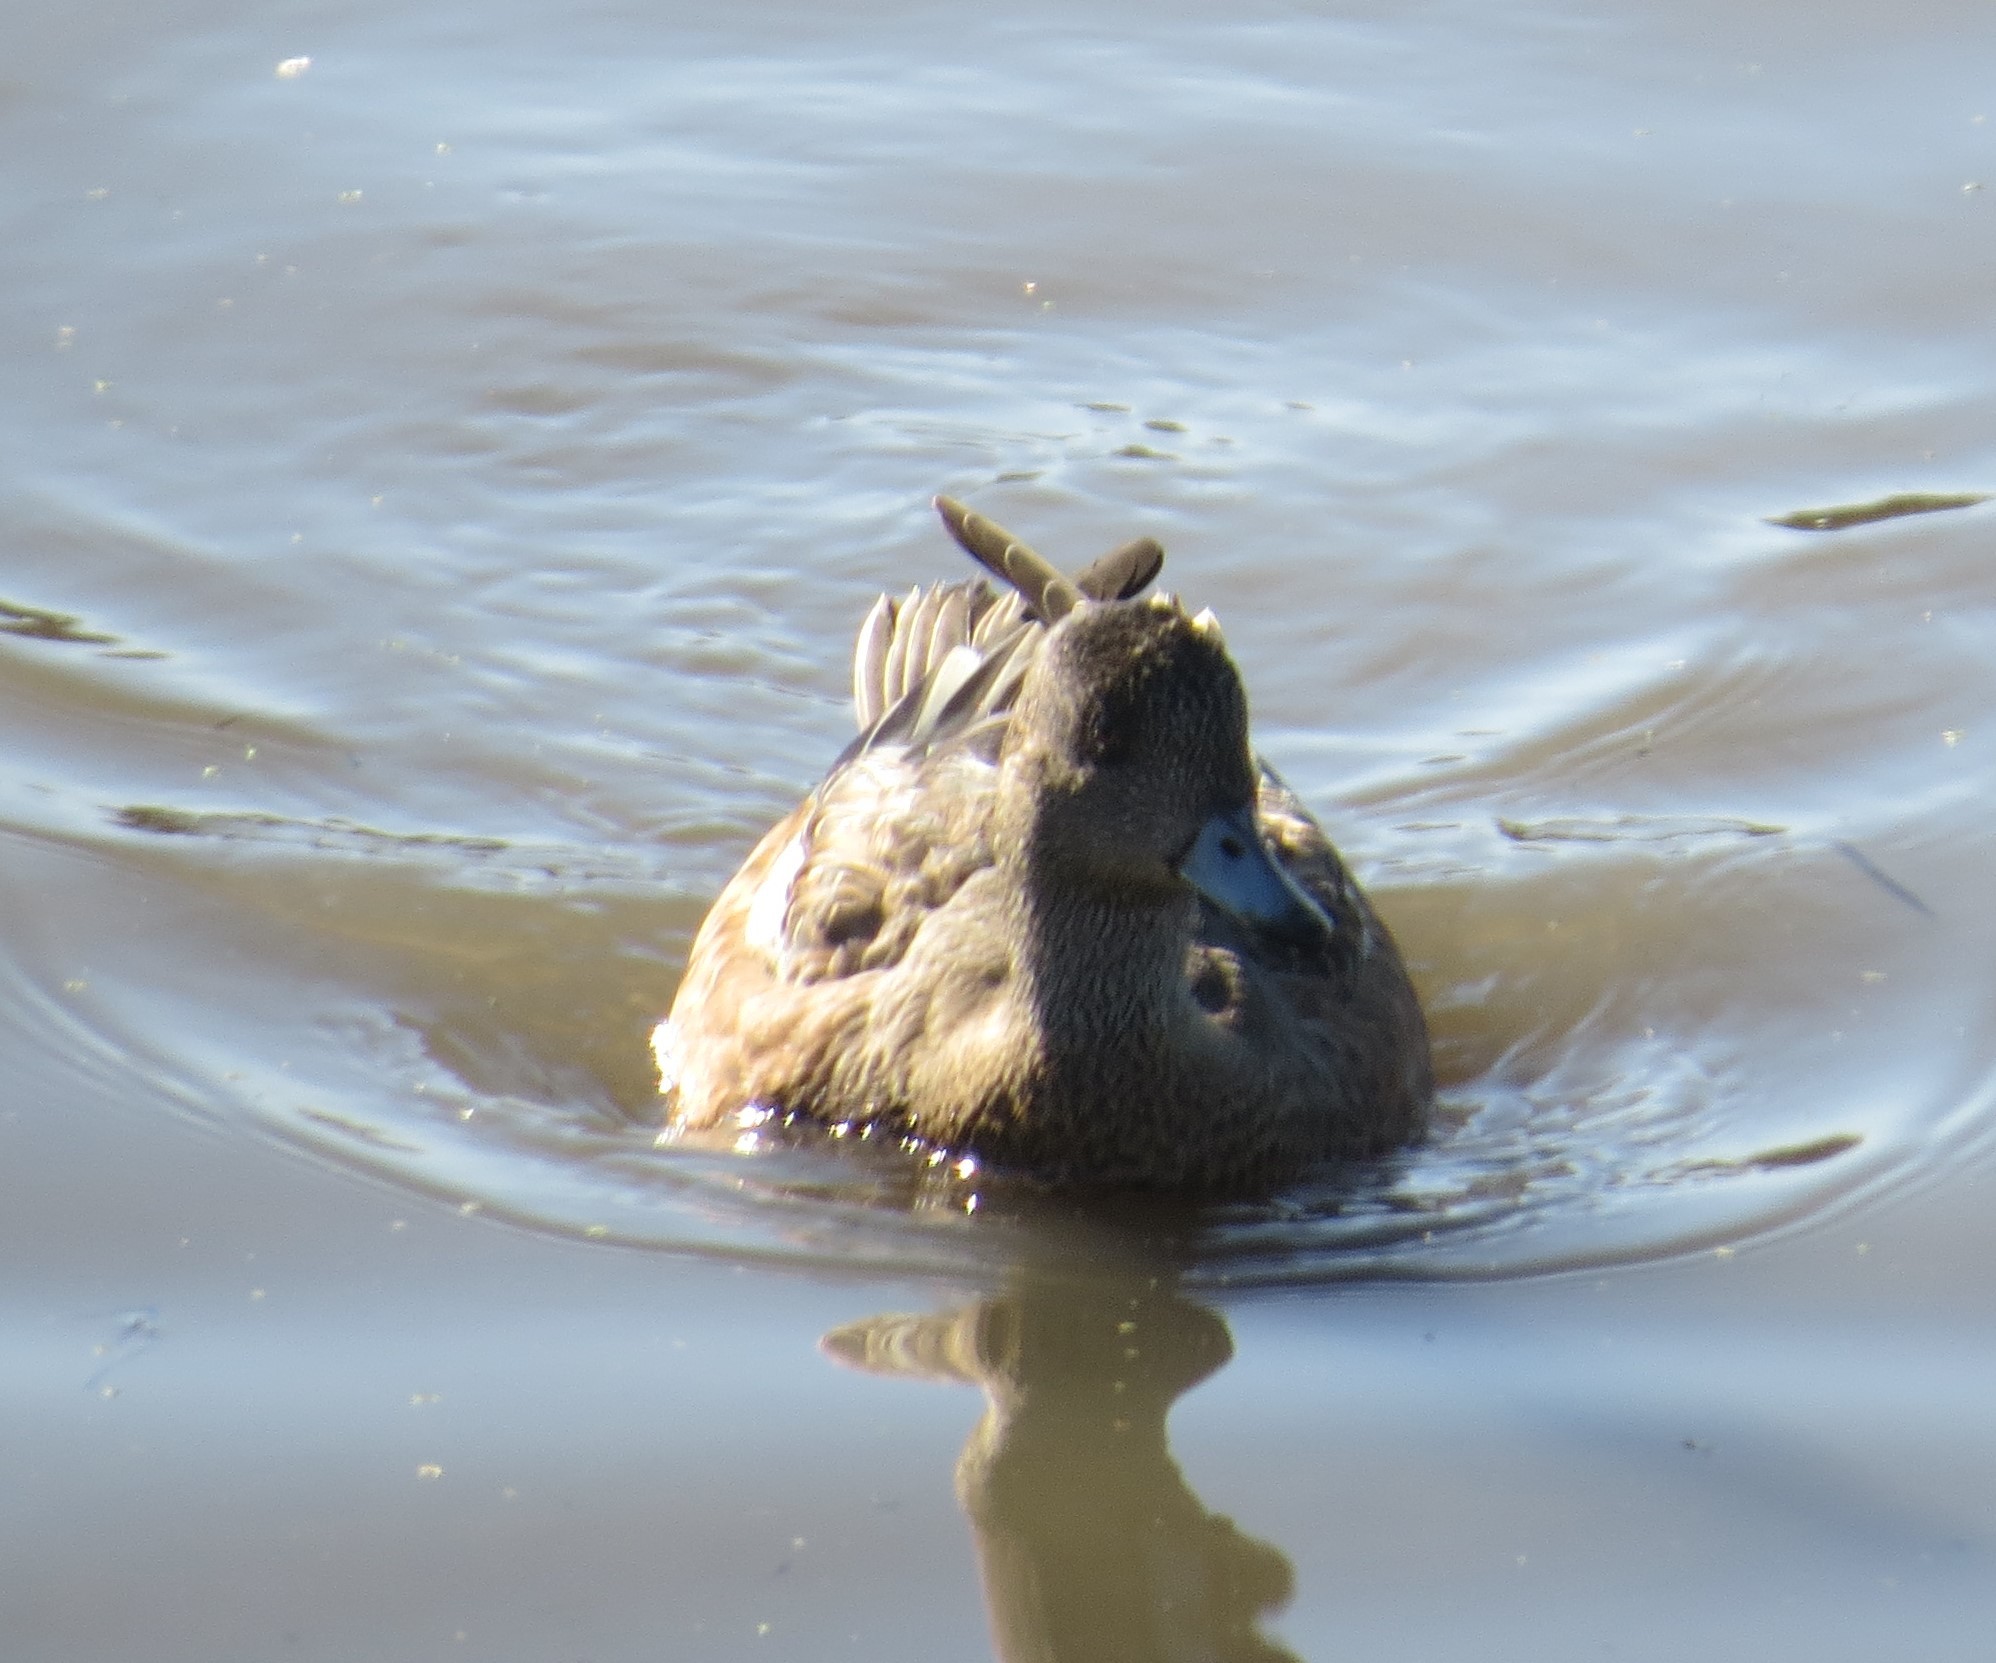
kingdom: Animalia
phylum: Chordata
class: Aves
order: Anseriformes
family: Anatidae
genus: Mareca
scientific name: Mareca americana
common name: American wigeon
